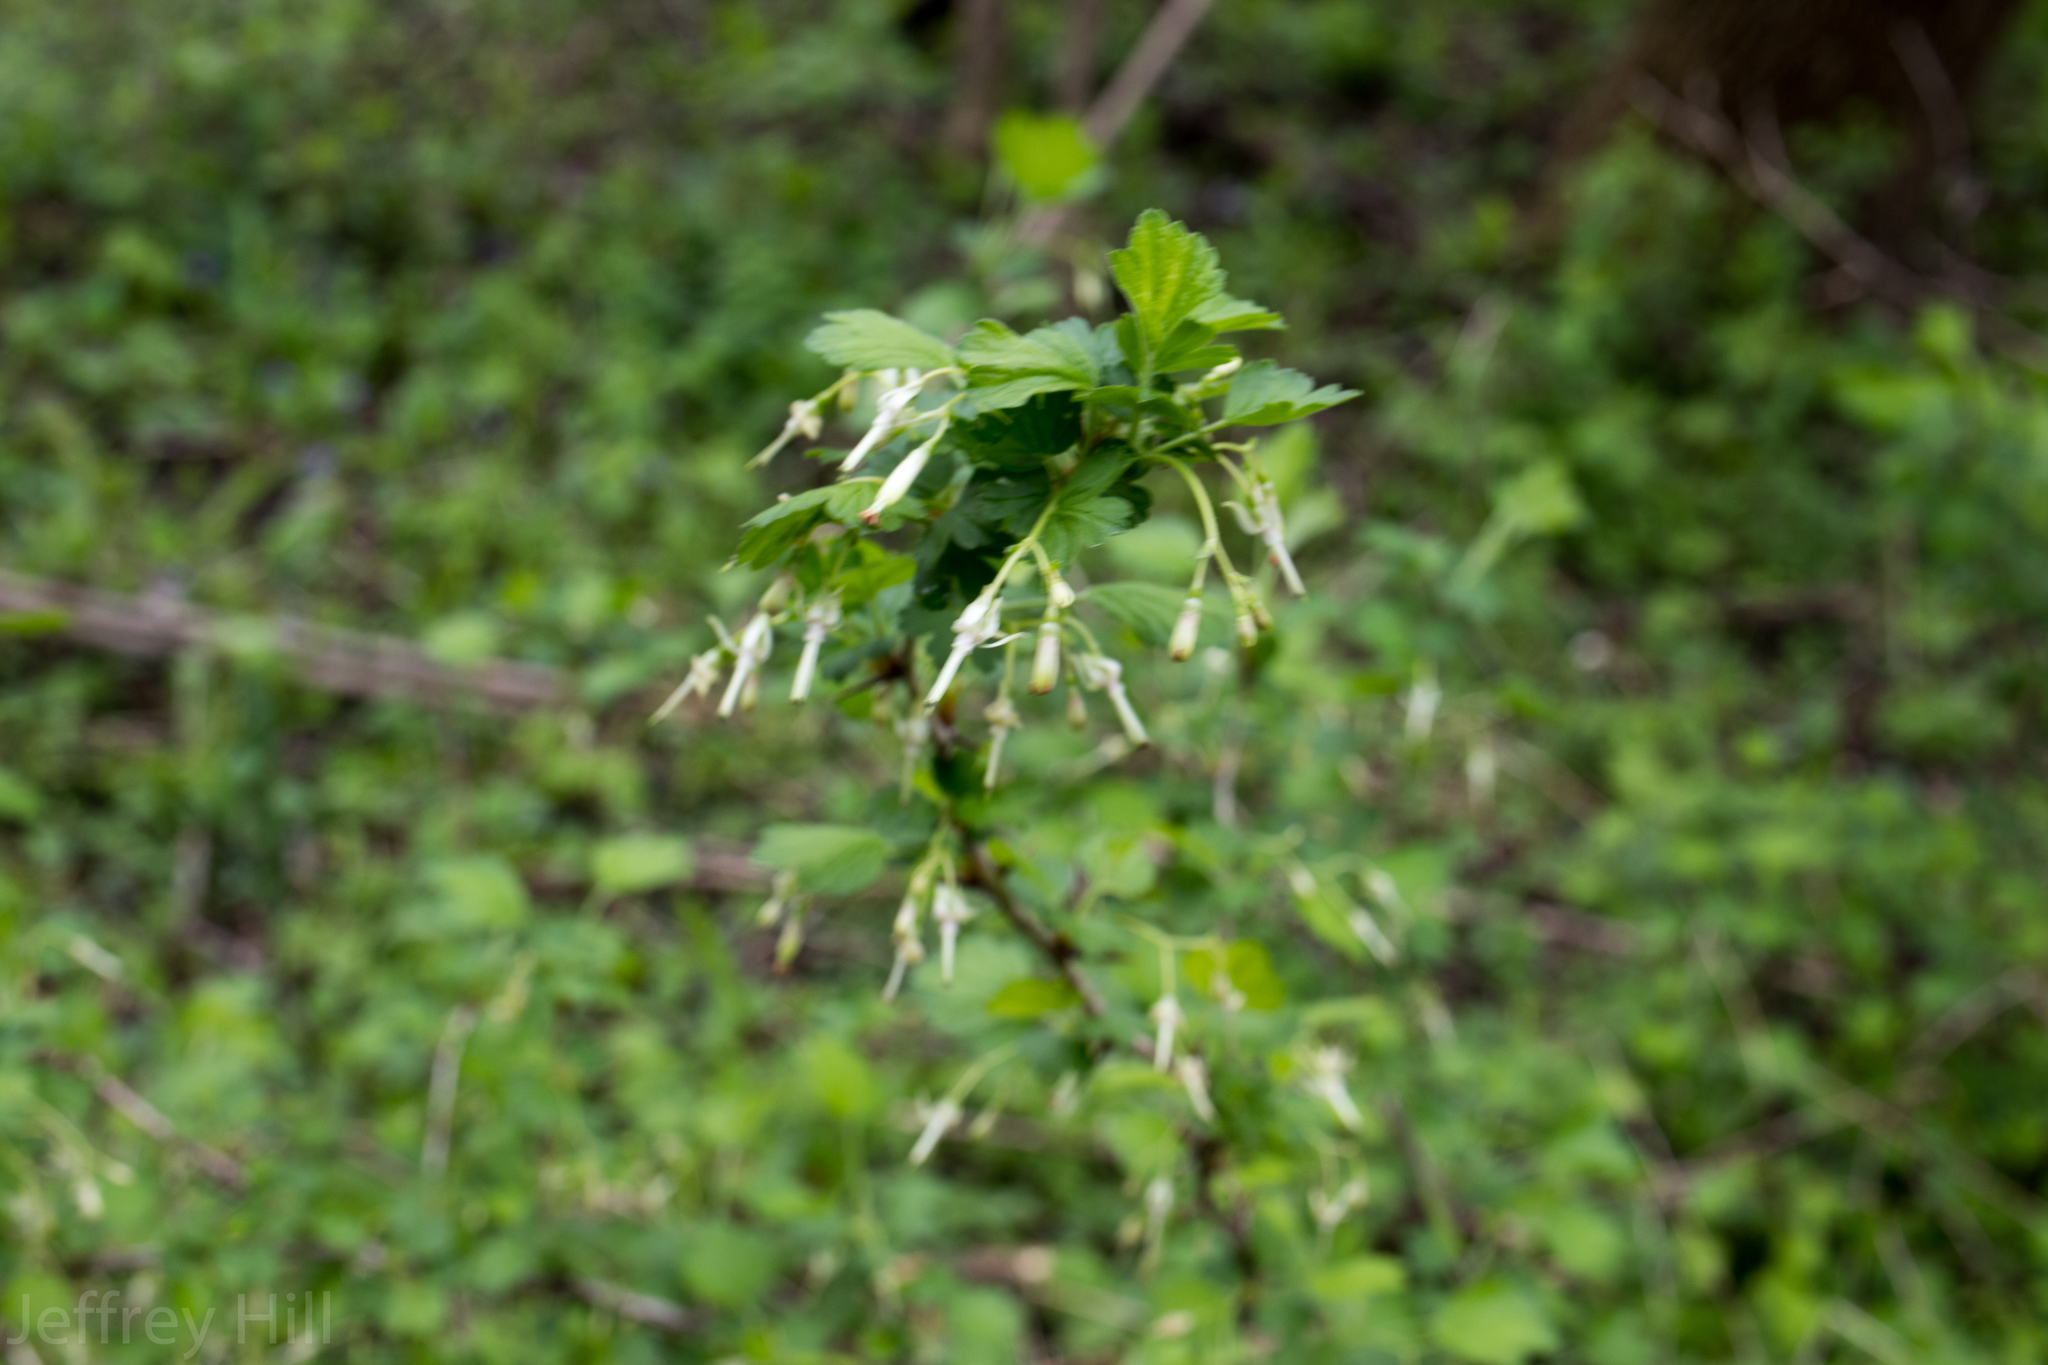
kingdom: Plantae
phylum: Tracheophyta
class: Magnoliopsida
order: Saxifragales
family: Grossulariaceae
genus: Ribes
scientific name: Ribes missouriense
